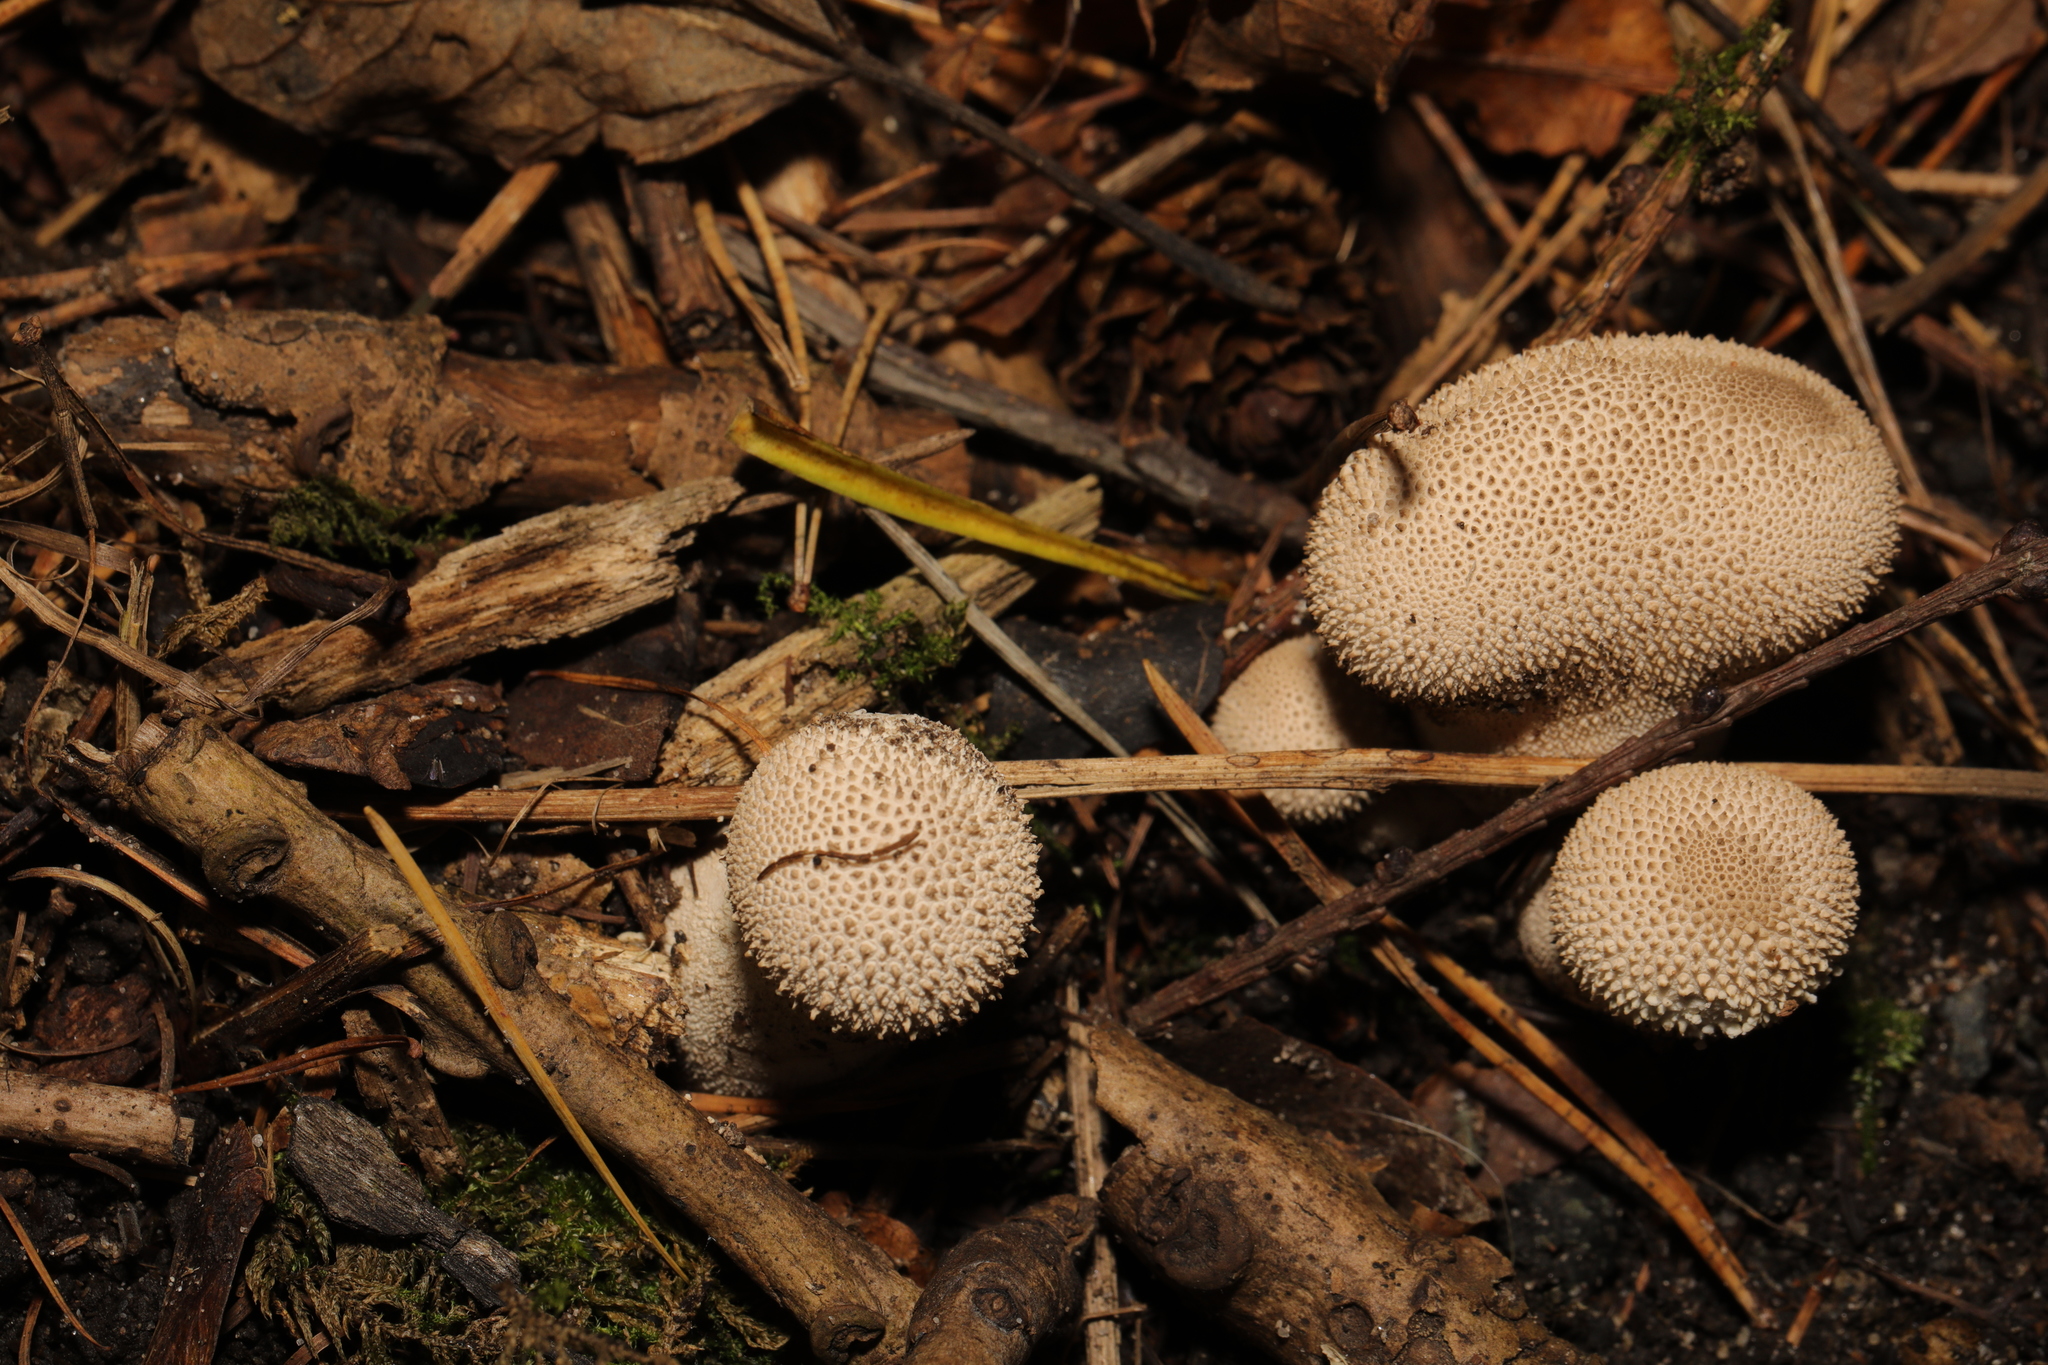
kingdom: Fungi
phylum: Basidiomycota
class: Agaricomycetes
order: Agaricales
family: Lycoperdaceae
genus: Lycoperdon
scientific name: Lycoperdon perlatum
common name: Common puffball
